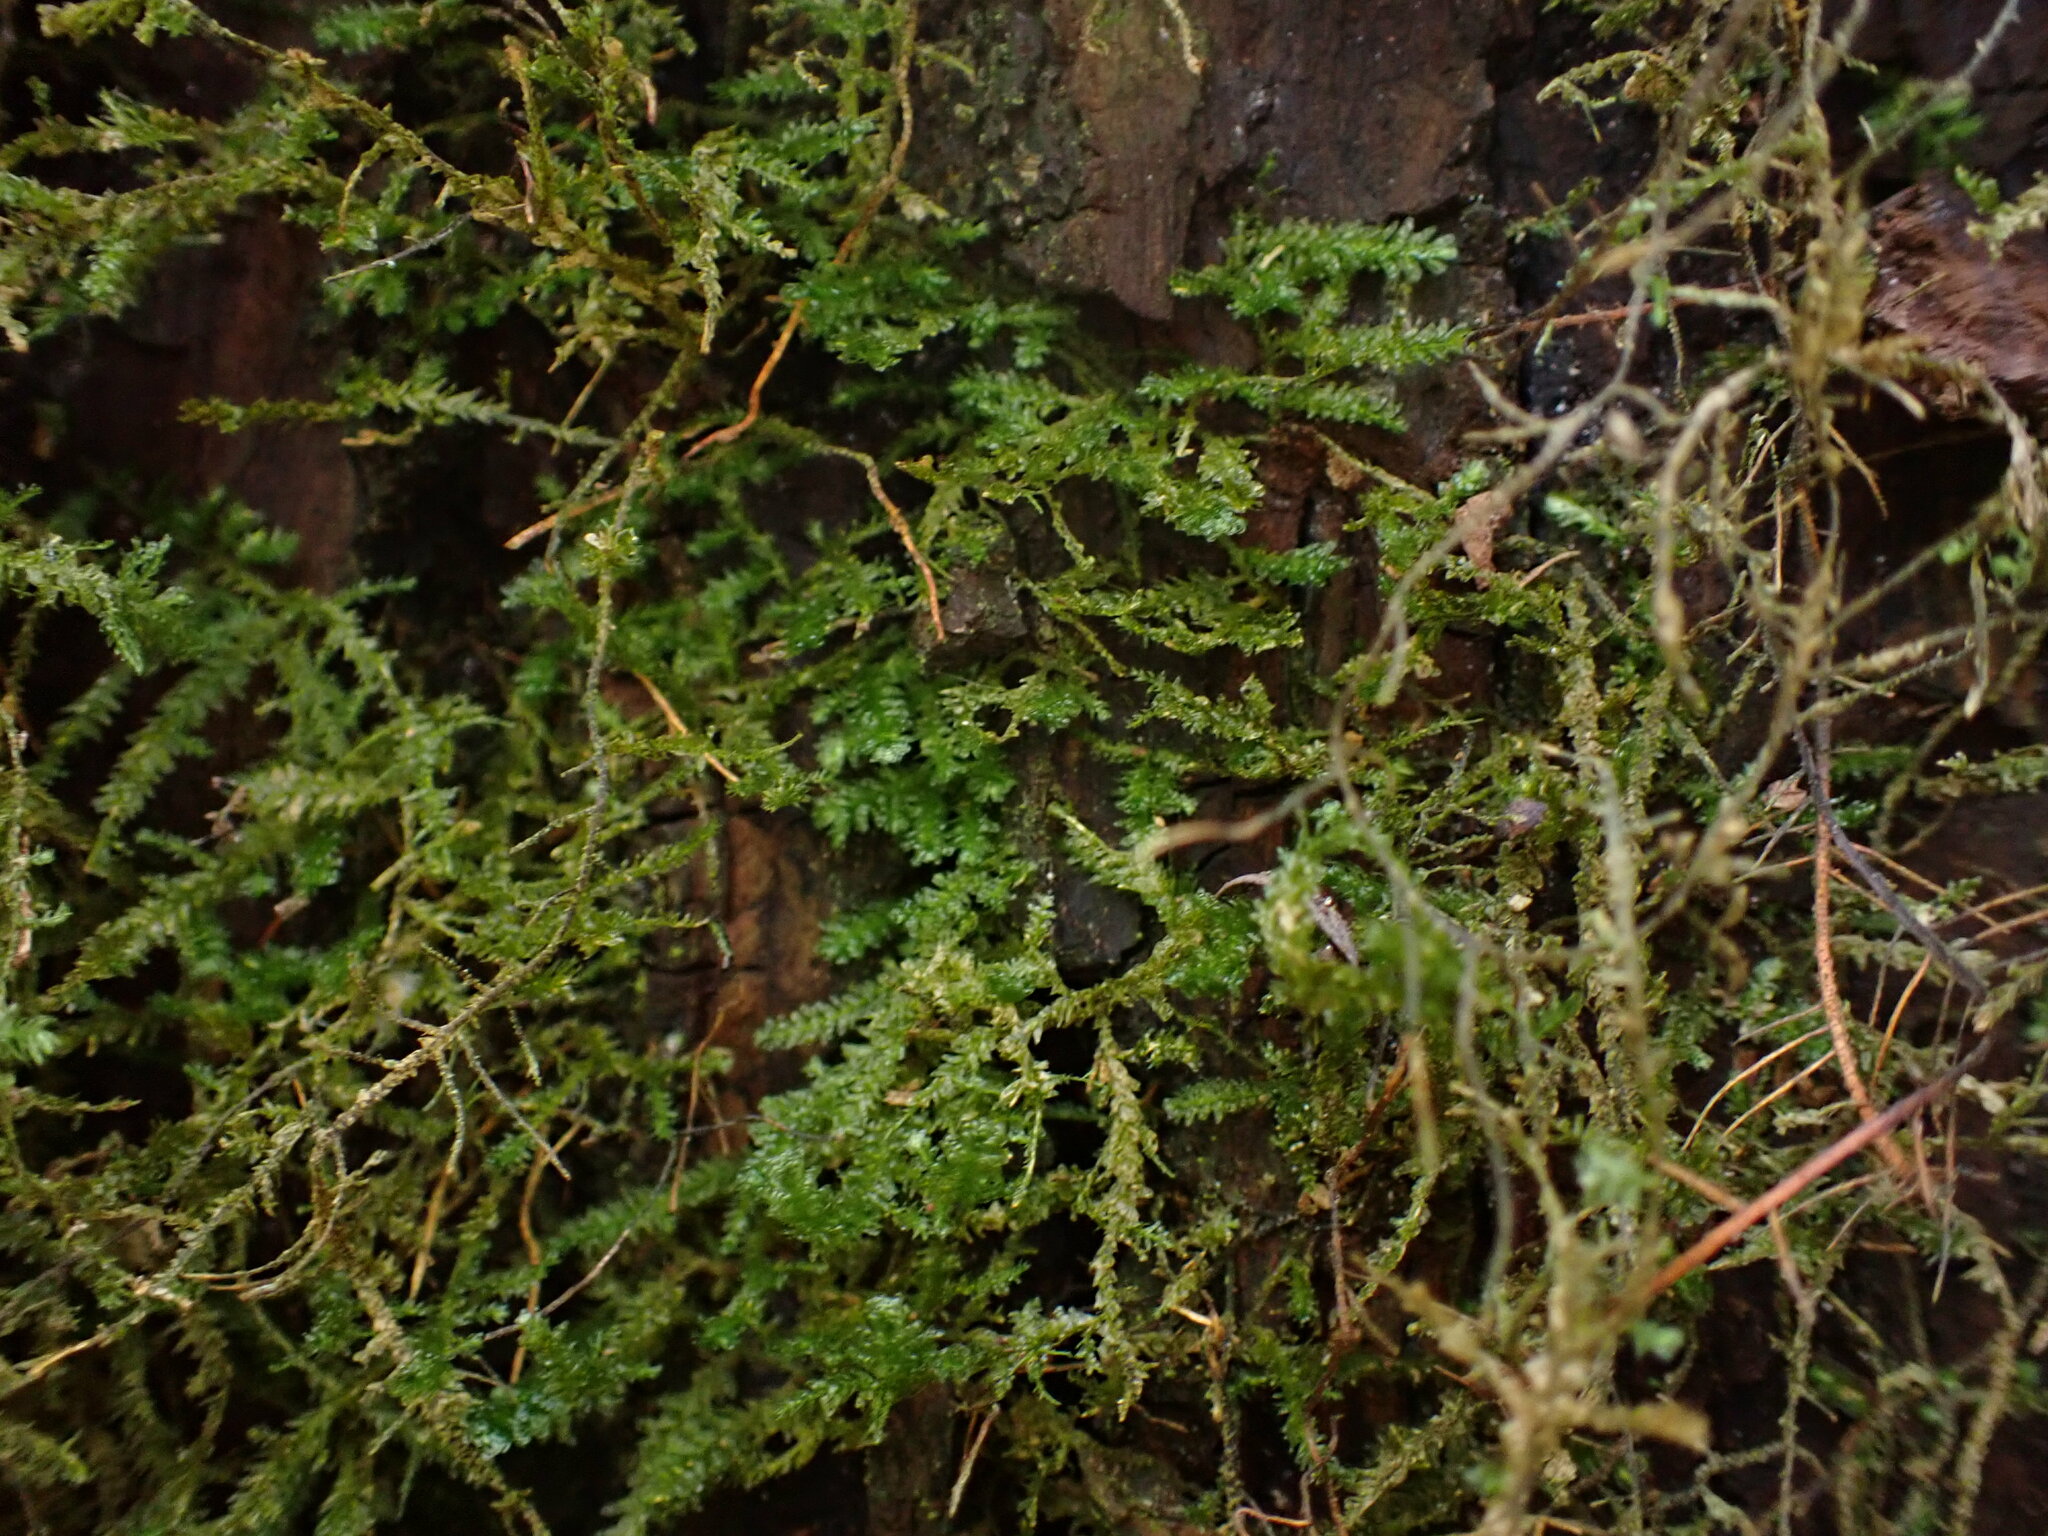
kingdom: Plantae
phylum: Bryophyta
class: Bryopsida
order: Hypnales
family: Neckeraceae
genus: Metaneckera
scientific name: Metaneckera menziesii
